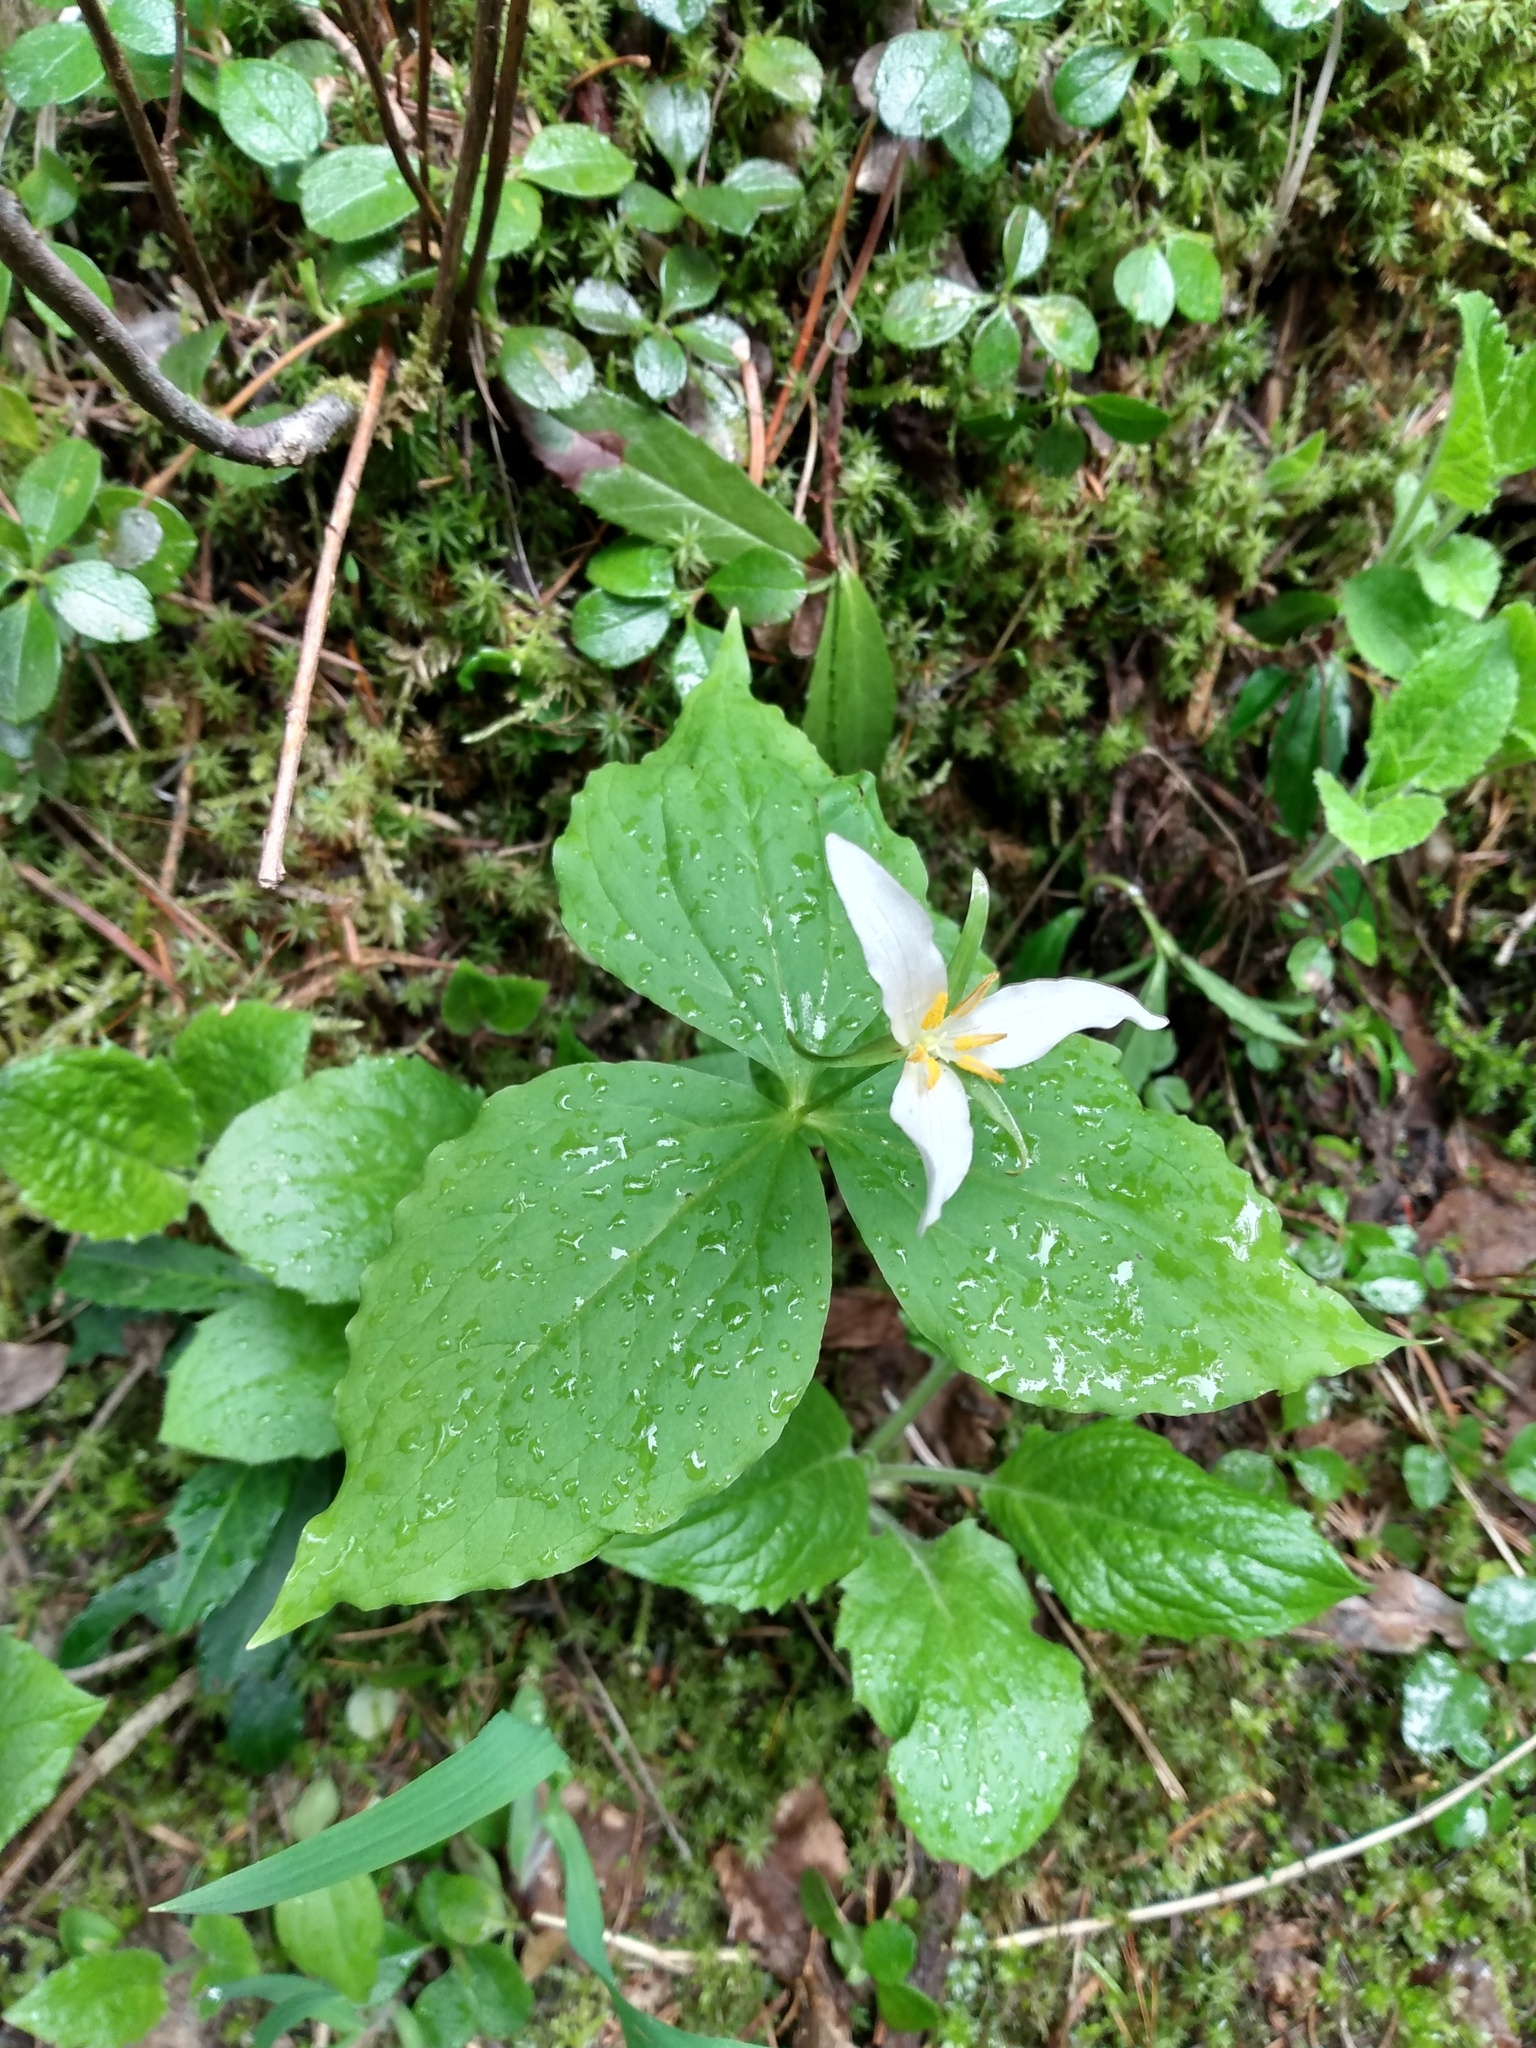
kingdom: Plantae
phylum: Tracheophyta
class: Liliopsida
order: Liliales
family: Melanthiaceae
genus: Trillium
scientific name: Trillium ovatum
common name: Pacific trillium
